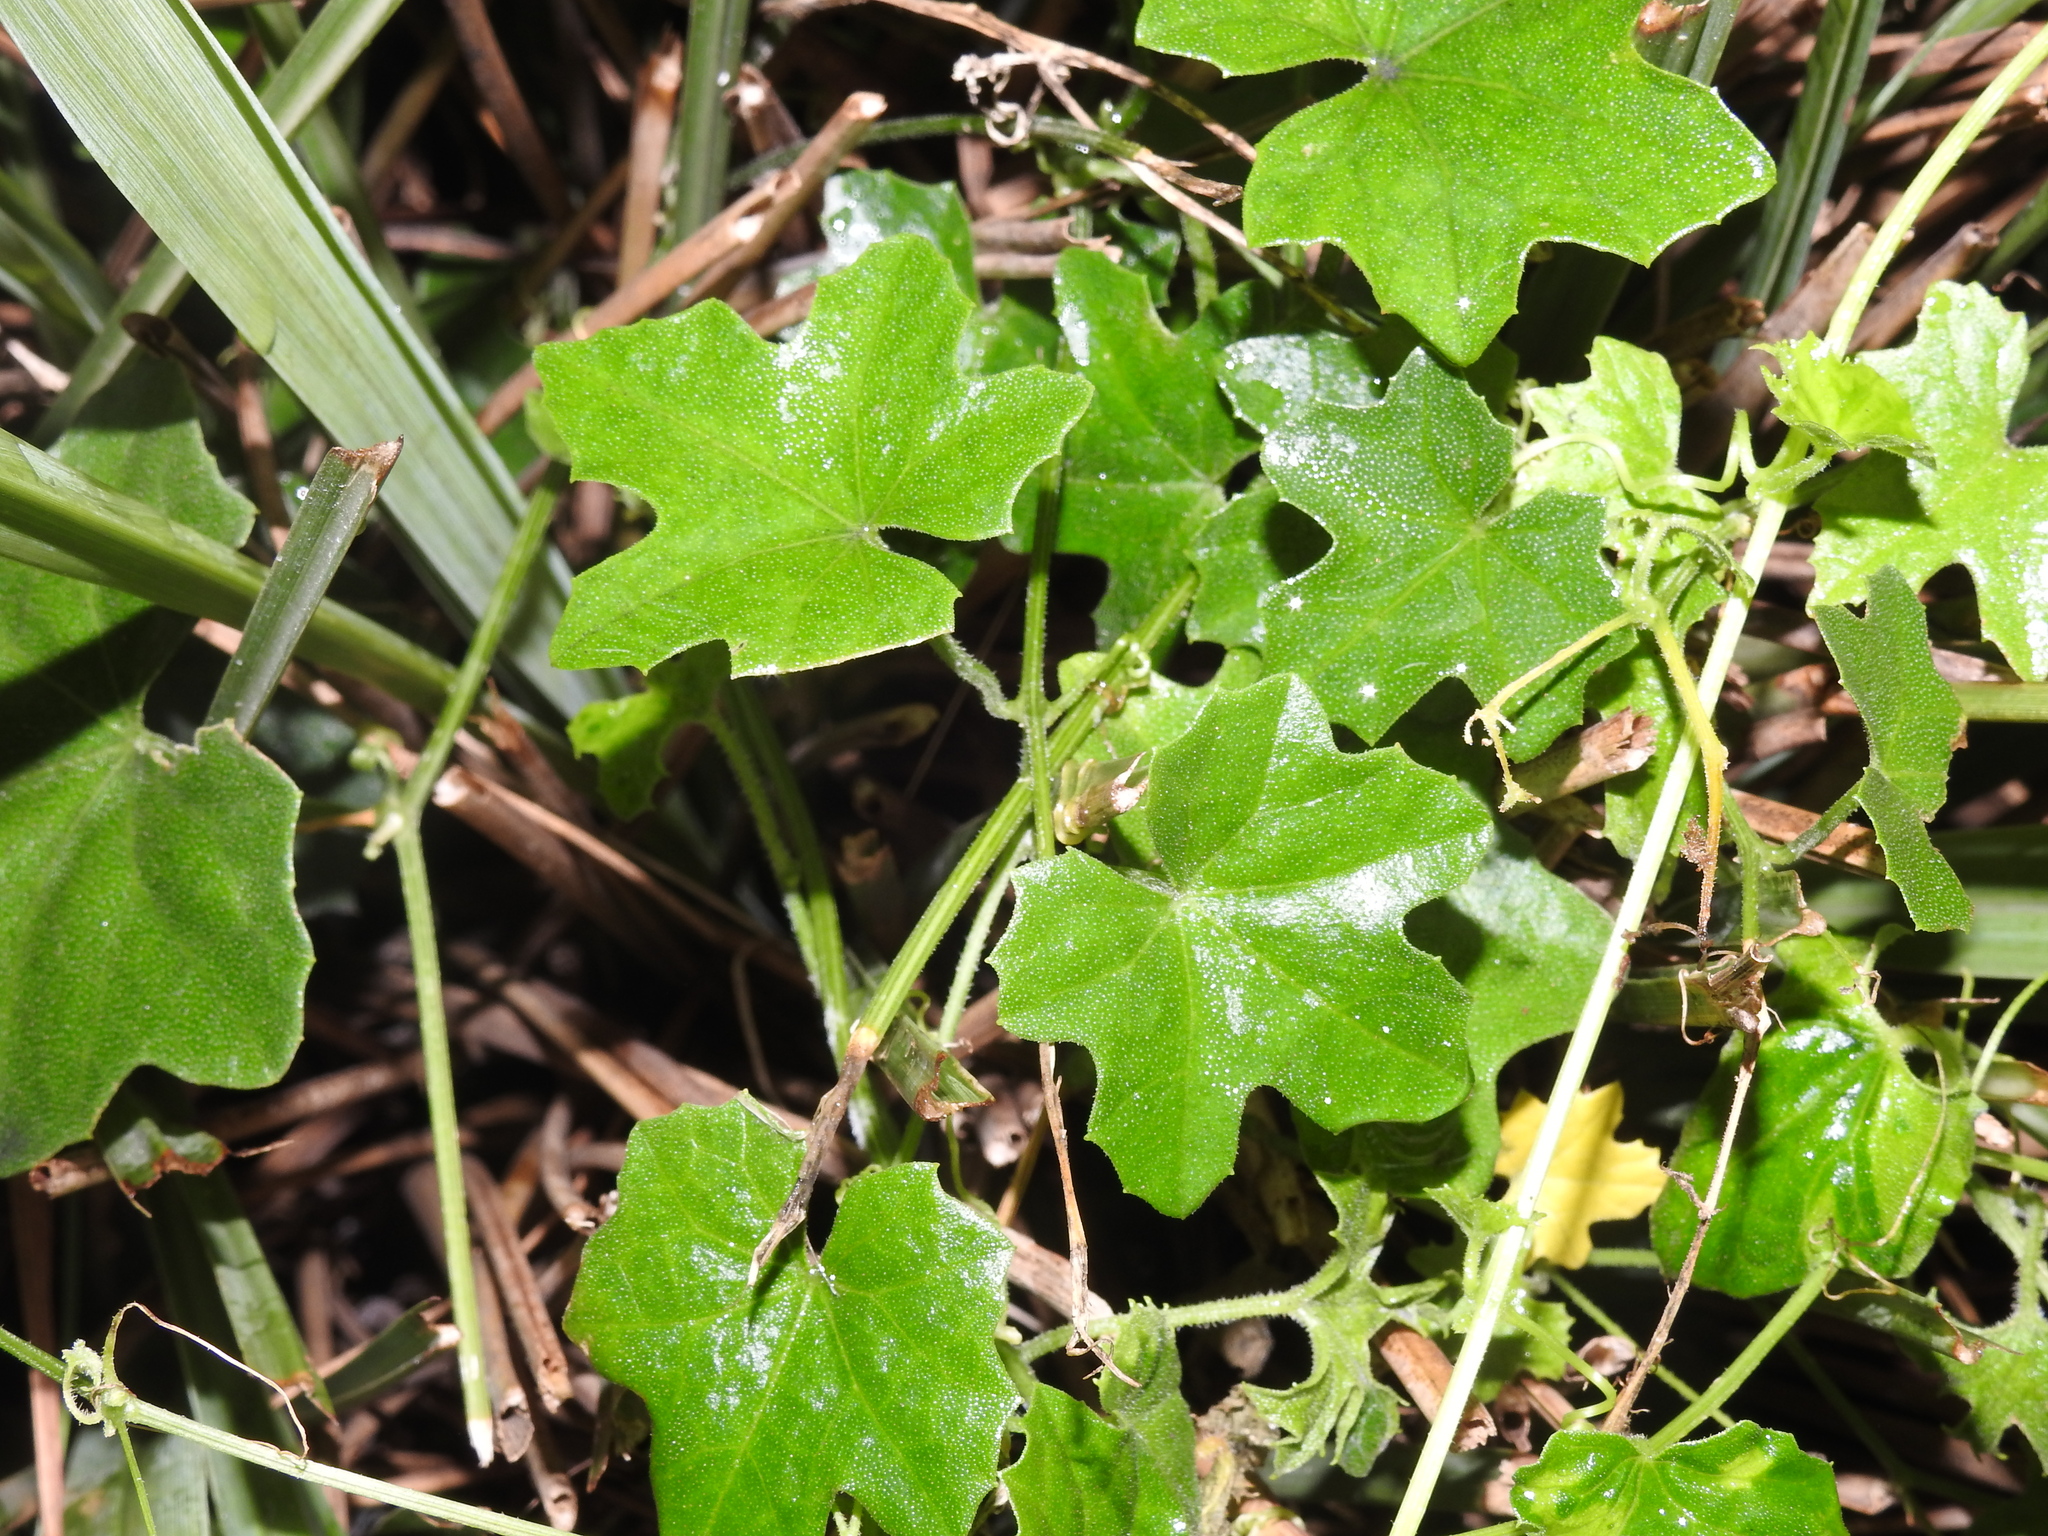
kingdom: Plantae
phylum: Tracheophyta
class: Magnoliopsida
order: Cucurbitales
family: Cucurbitaceae
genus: Melothria
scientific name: Melothria pendula
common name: Creeping-cucumber
